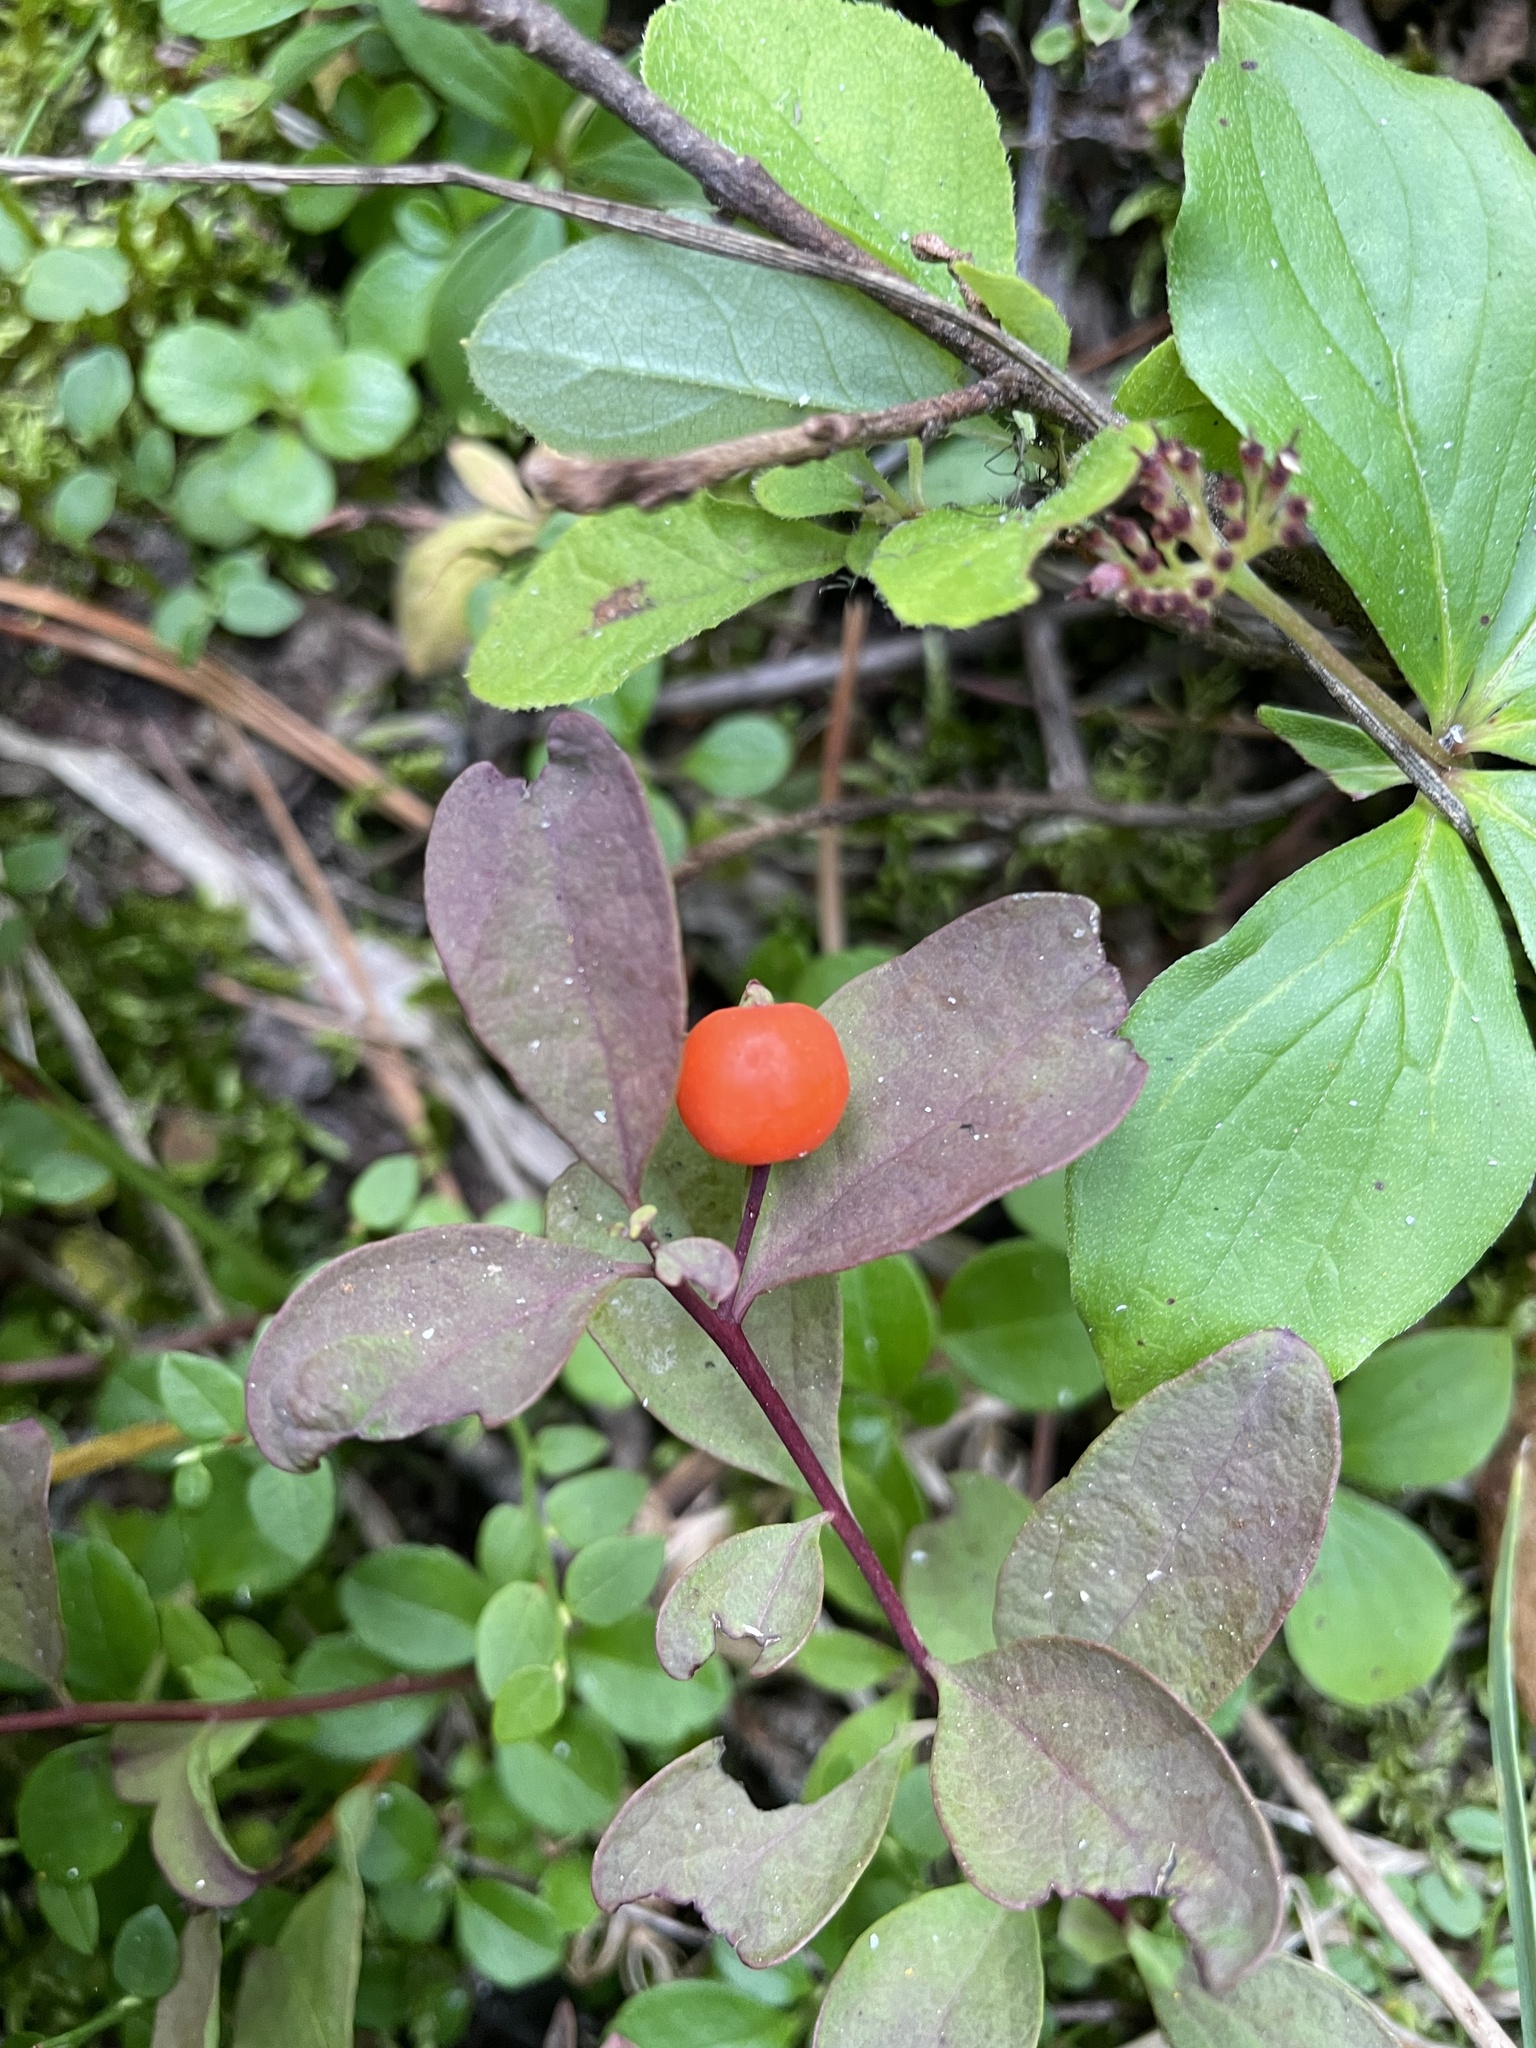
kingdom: Plantae
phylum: Tracheophyta
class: Magnoliopsida
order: Santalales
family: Comandraceae
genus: Geocaulon
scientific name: Geocaulon lividum
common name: Earthberry
